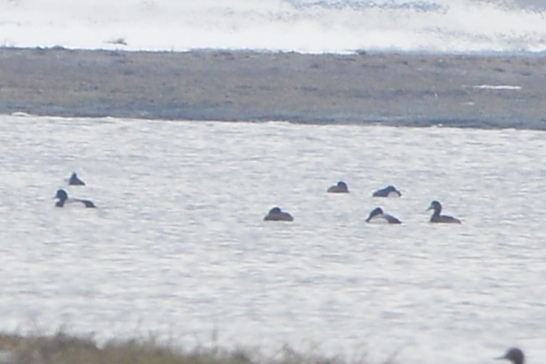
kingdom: Animalia
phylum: Chordata
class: Aves
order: Anseriformes
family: Anatidae
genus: Aythya
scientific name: Aythya marila
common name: Greater scaup
